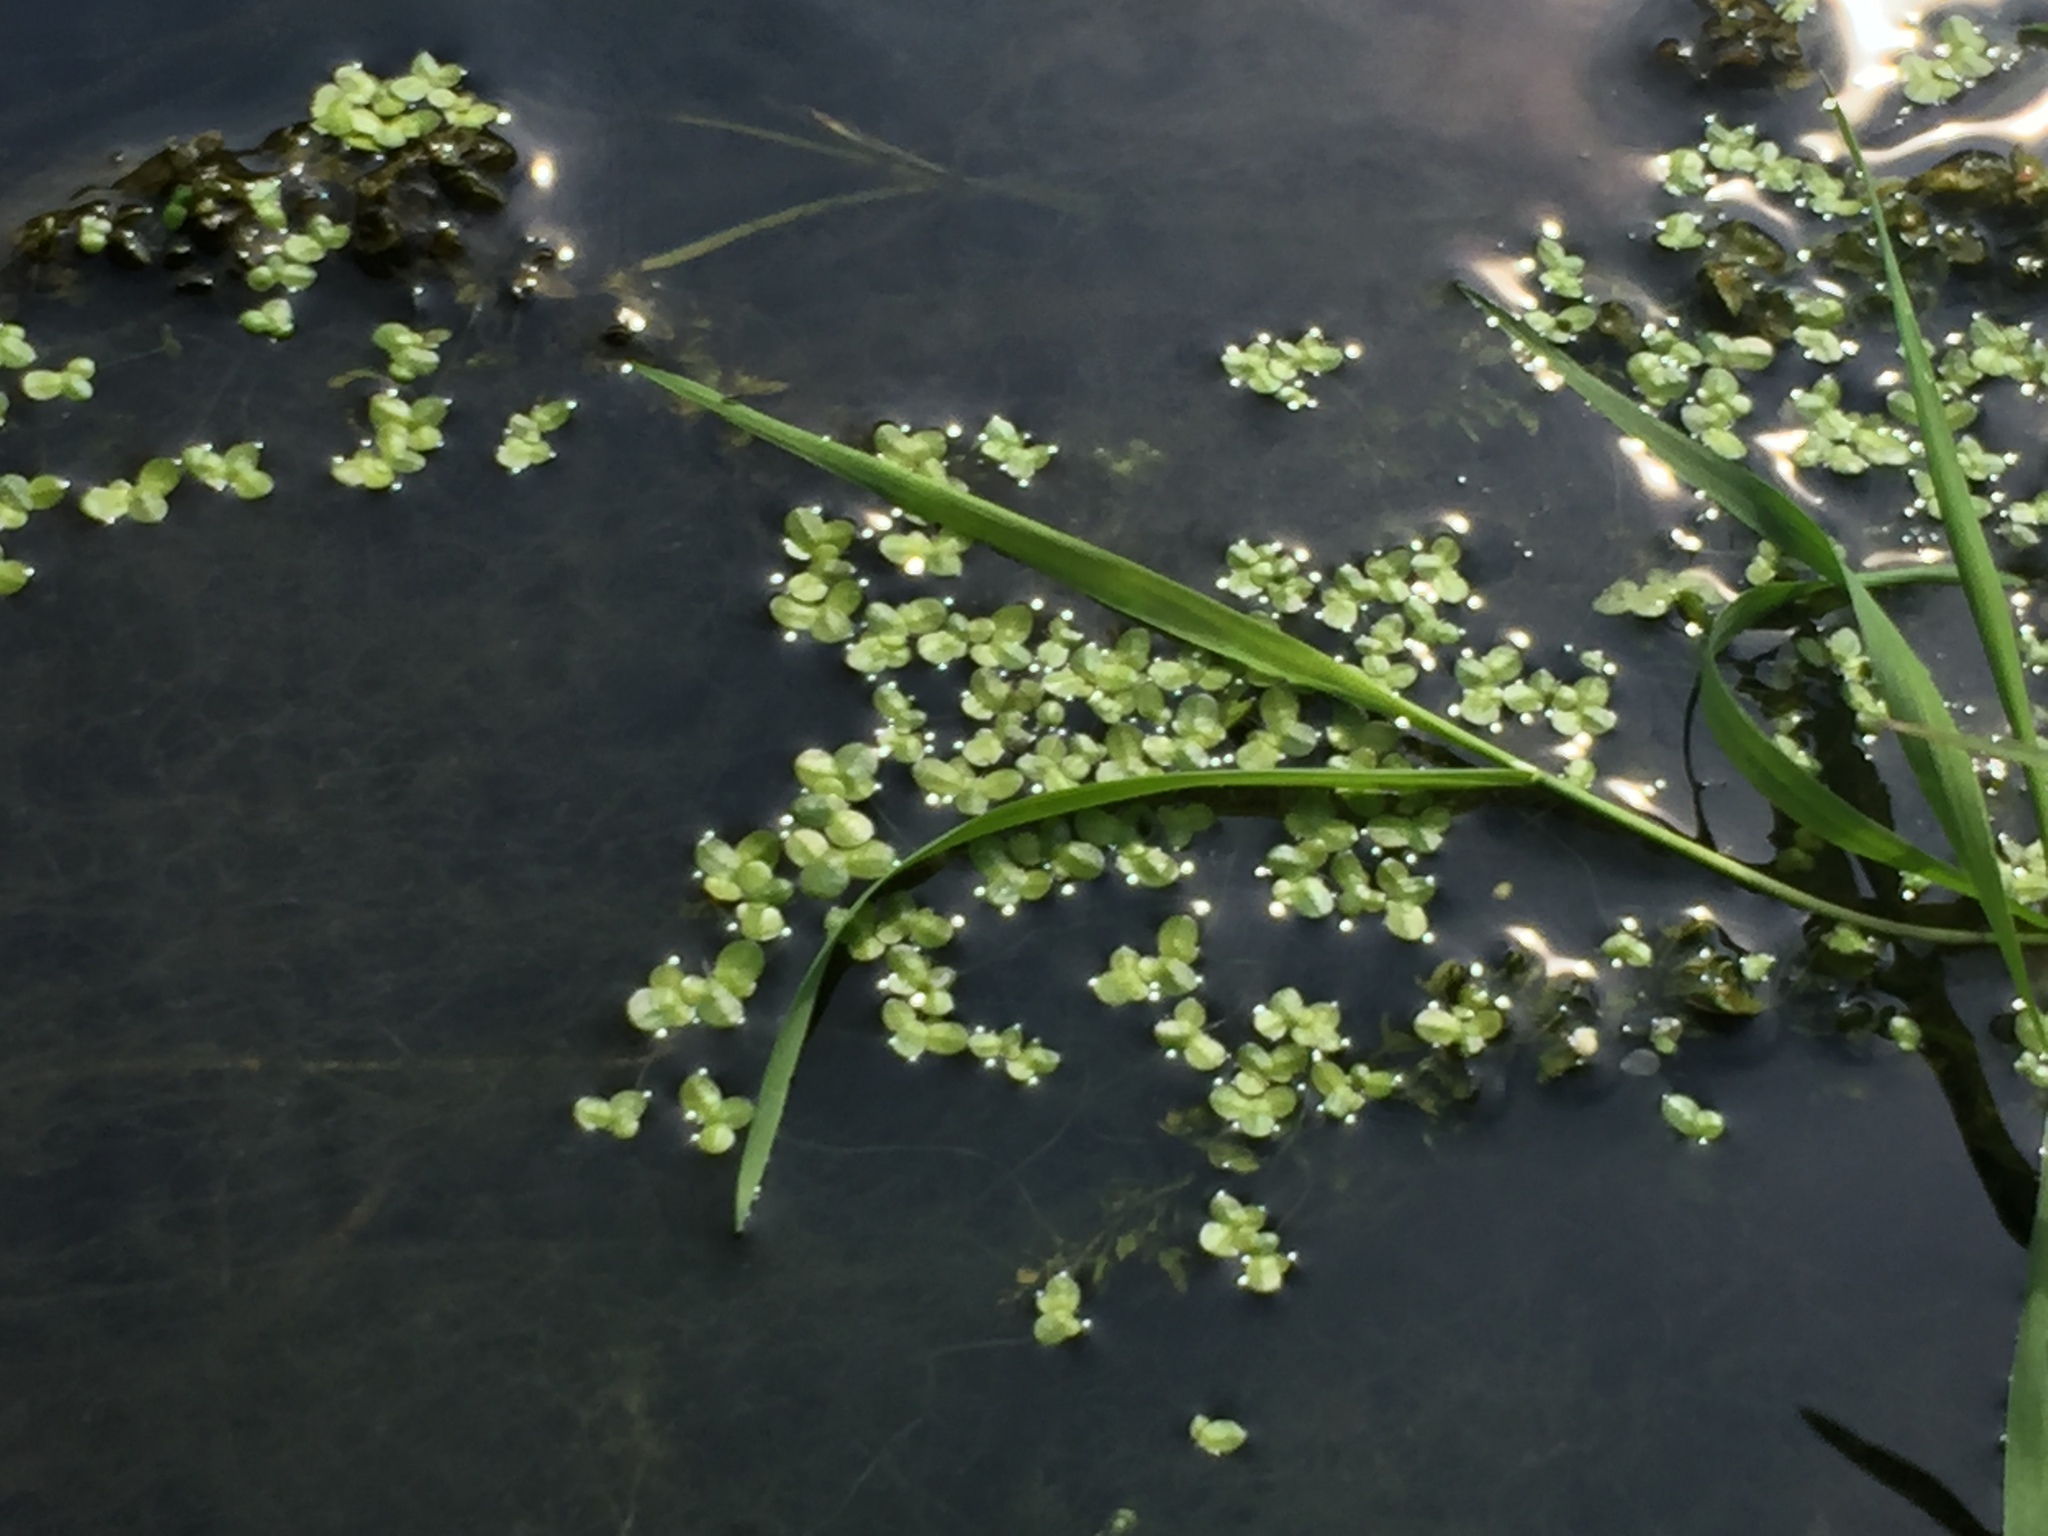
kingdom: Plantae
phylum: Tracheophyta
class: Liliopsida
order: Alismatales
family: Araceae
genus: Lemna
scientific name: Lemna minor
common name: Common duckweed
